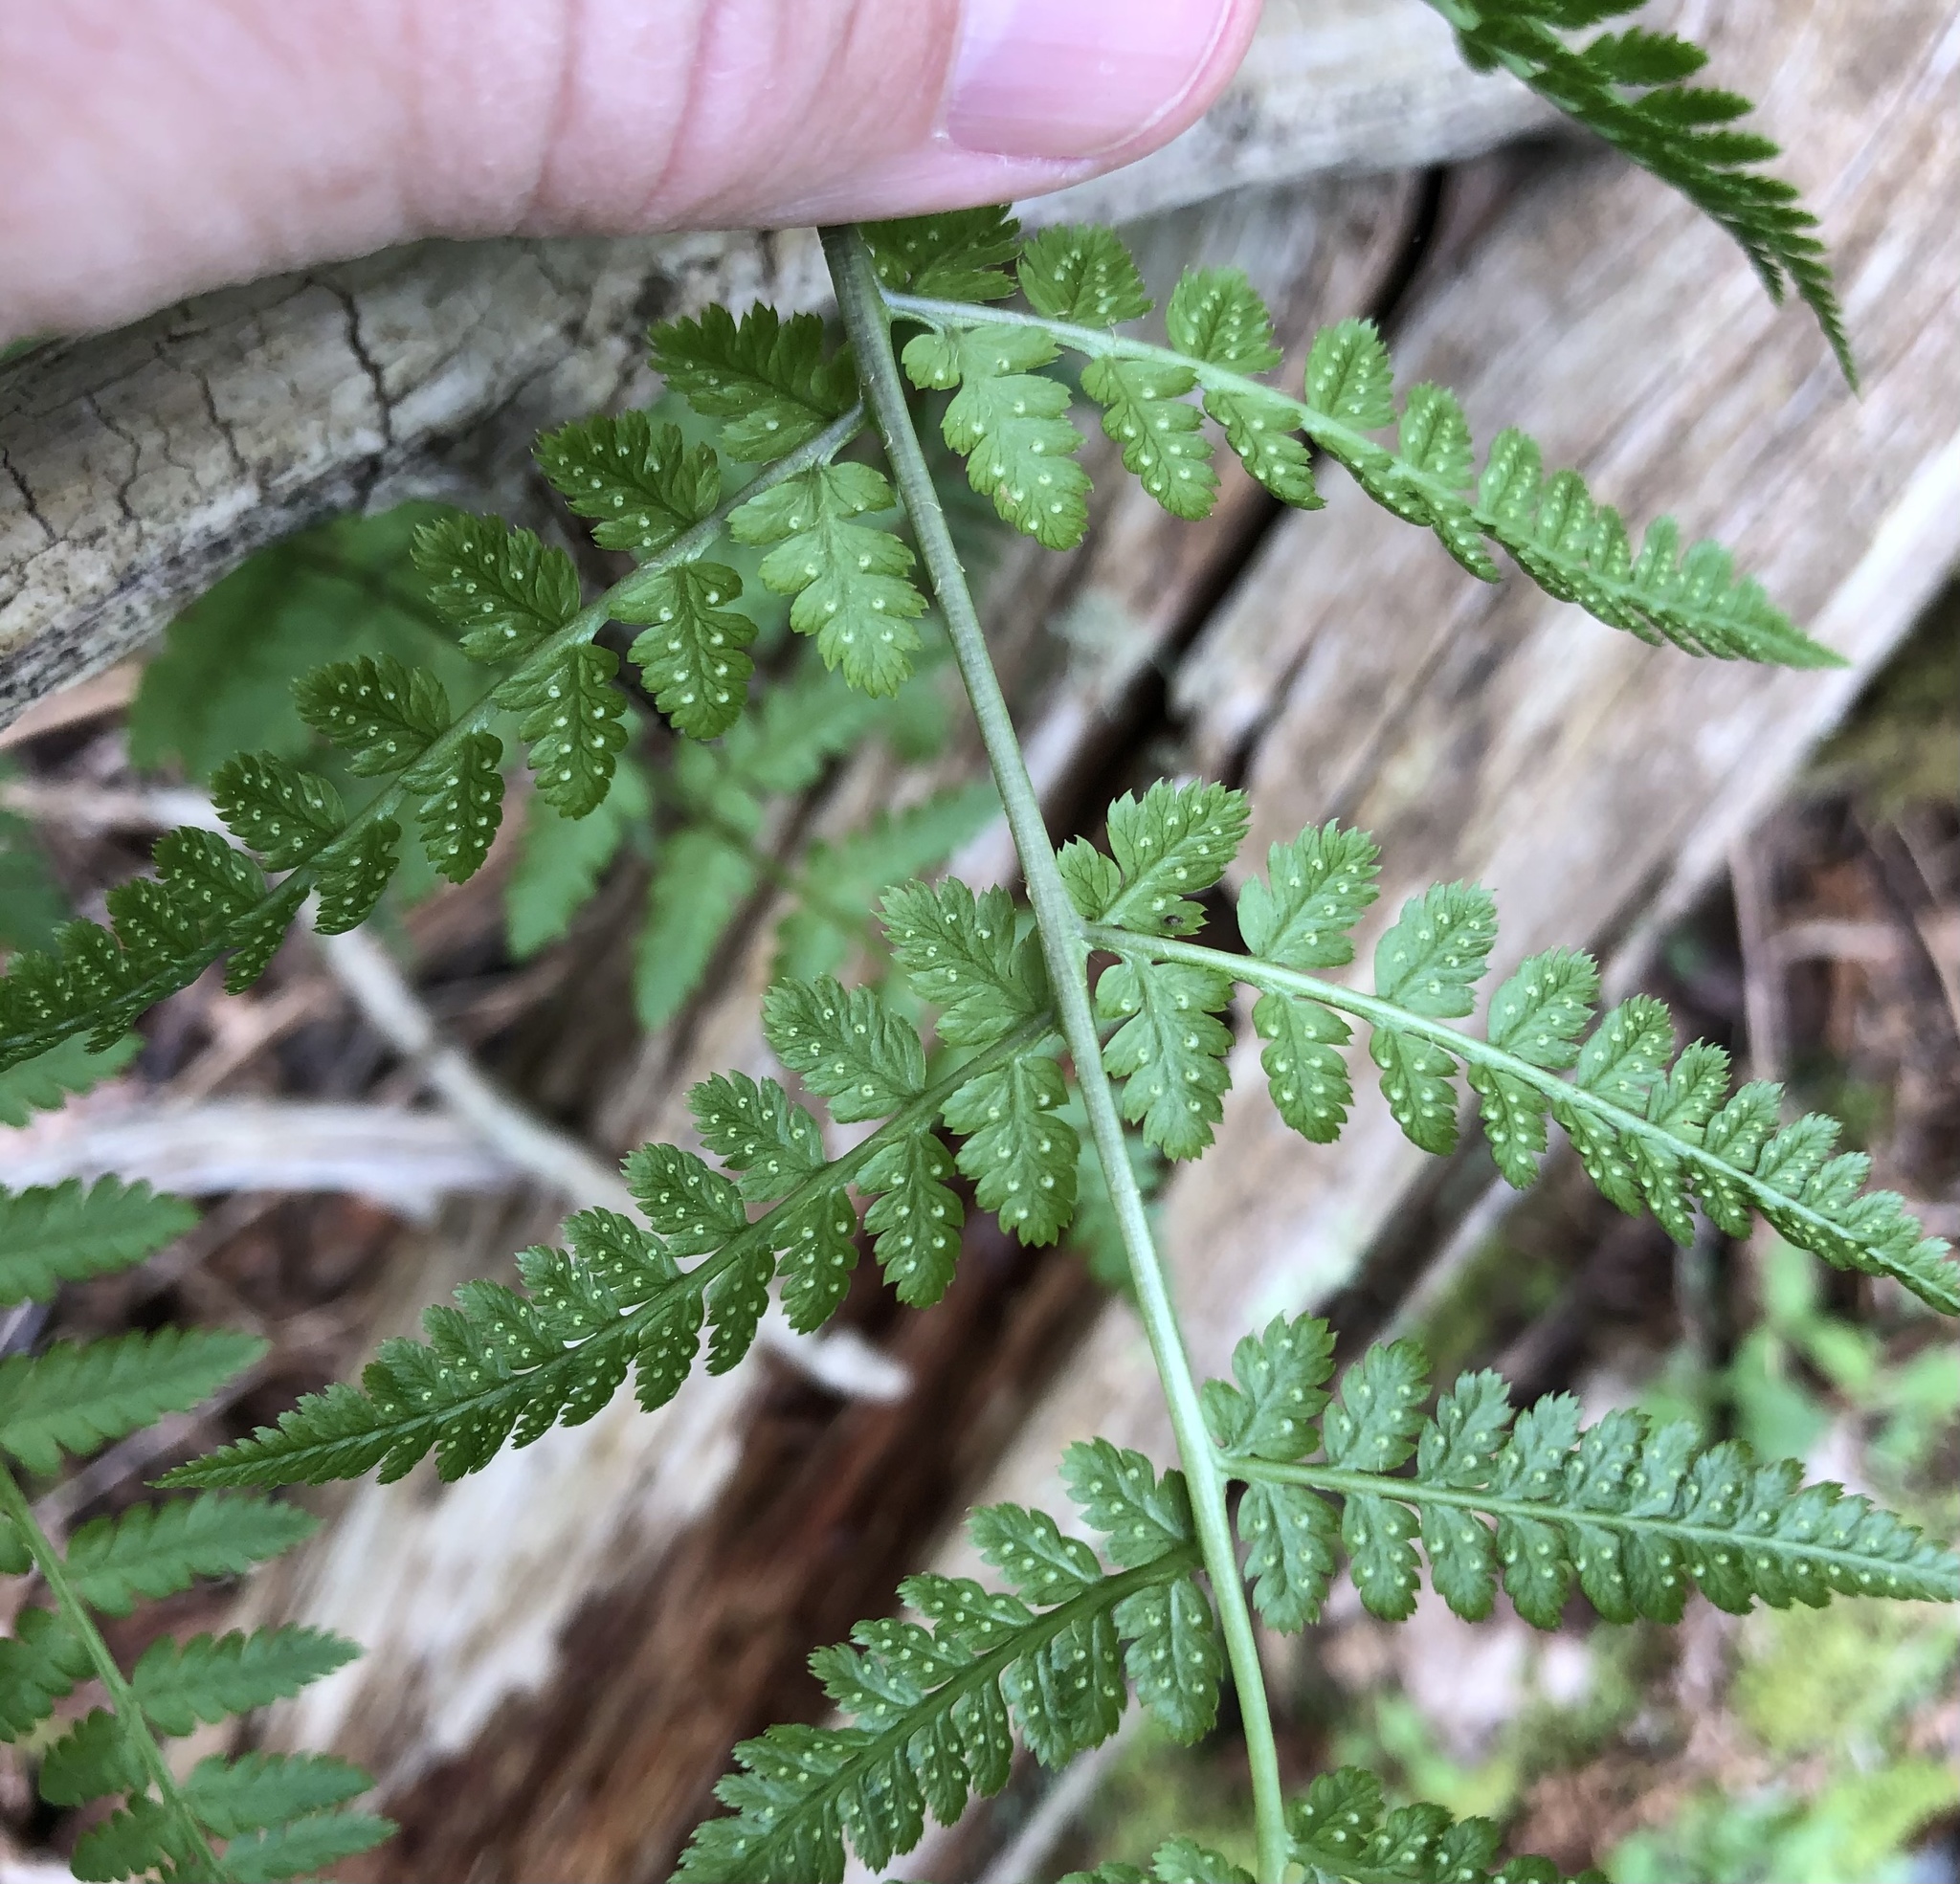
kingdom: Plantae
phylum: Tracheophyta
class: Polypodiopsida
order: Polypodiales
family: Dryopteridaceae
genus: Dryopteris
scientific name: Dryopteris campyloptera
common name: Mountain wood fern
